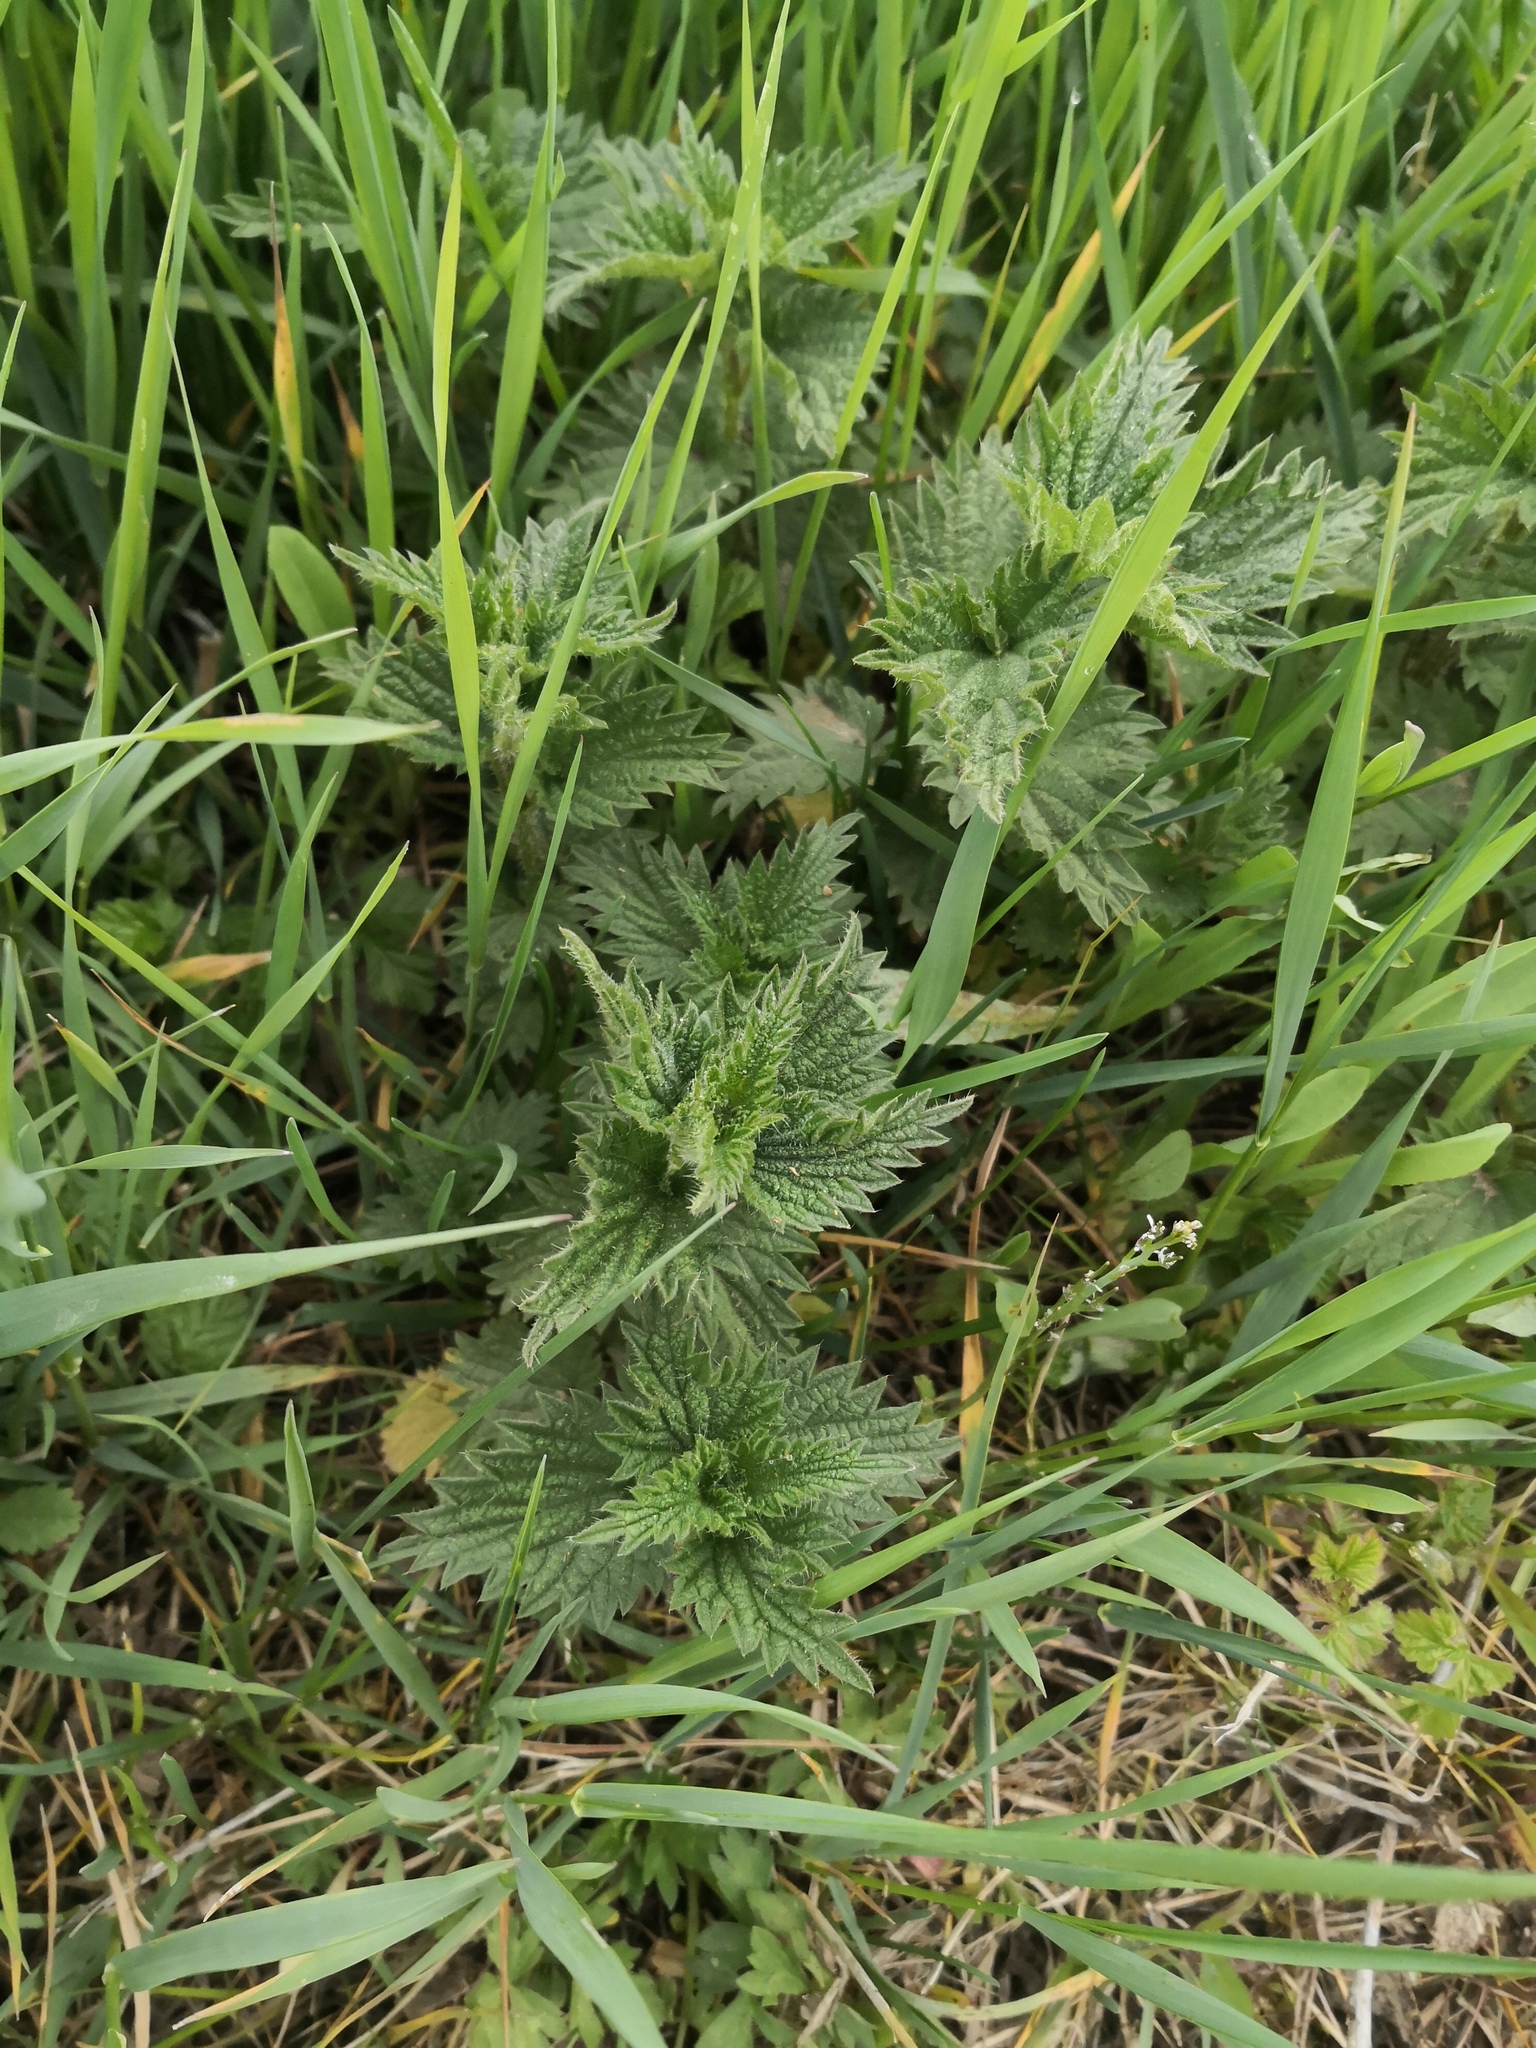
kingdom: Plantae
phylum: Tracheophyta
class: Magnoliopsida
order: Rosales
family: Urticaceae
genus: Urtica
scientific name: Urtica dioica
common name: Common nettle
